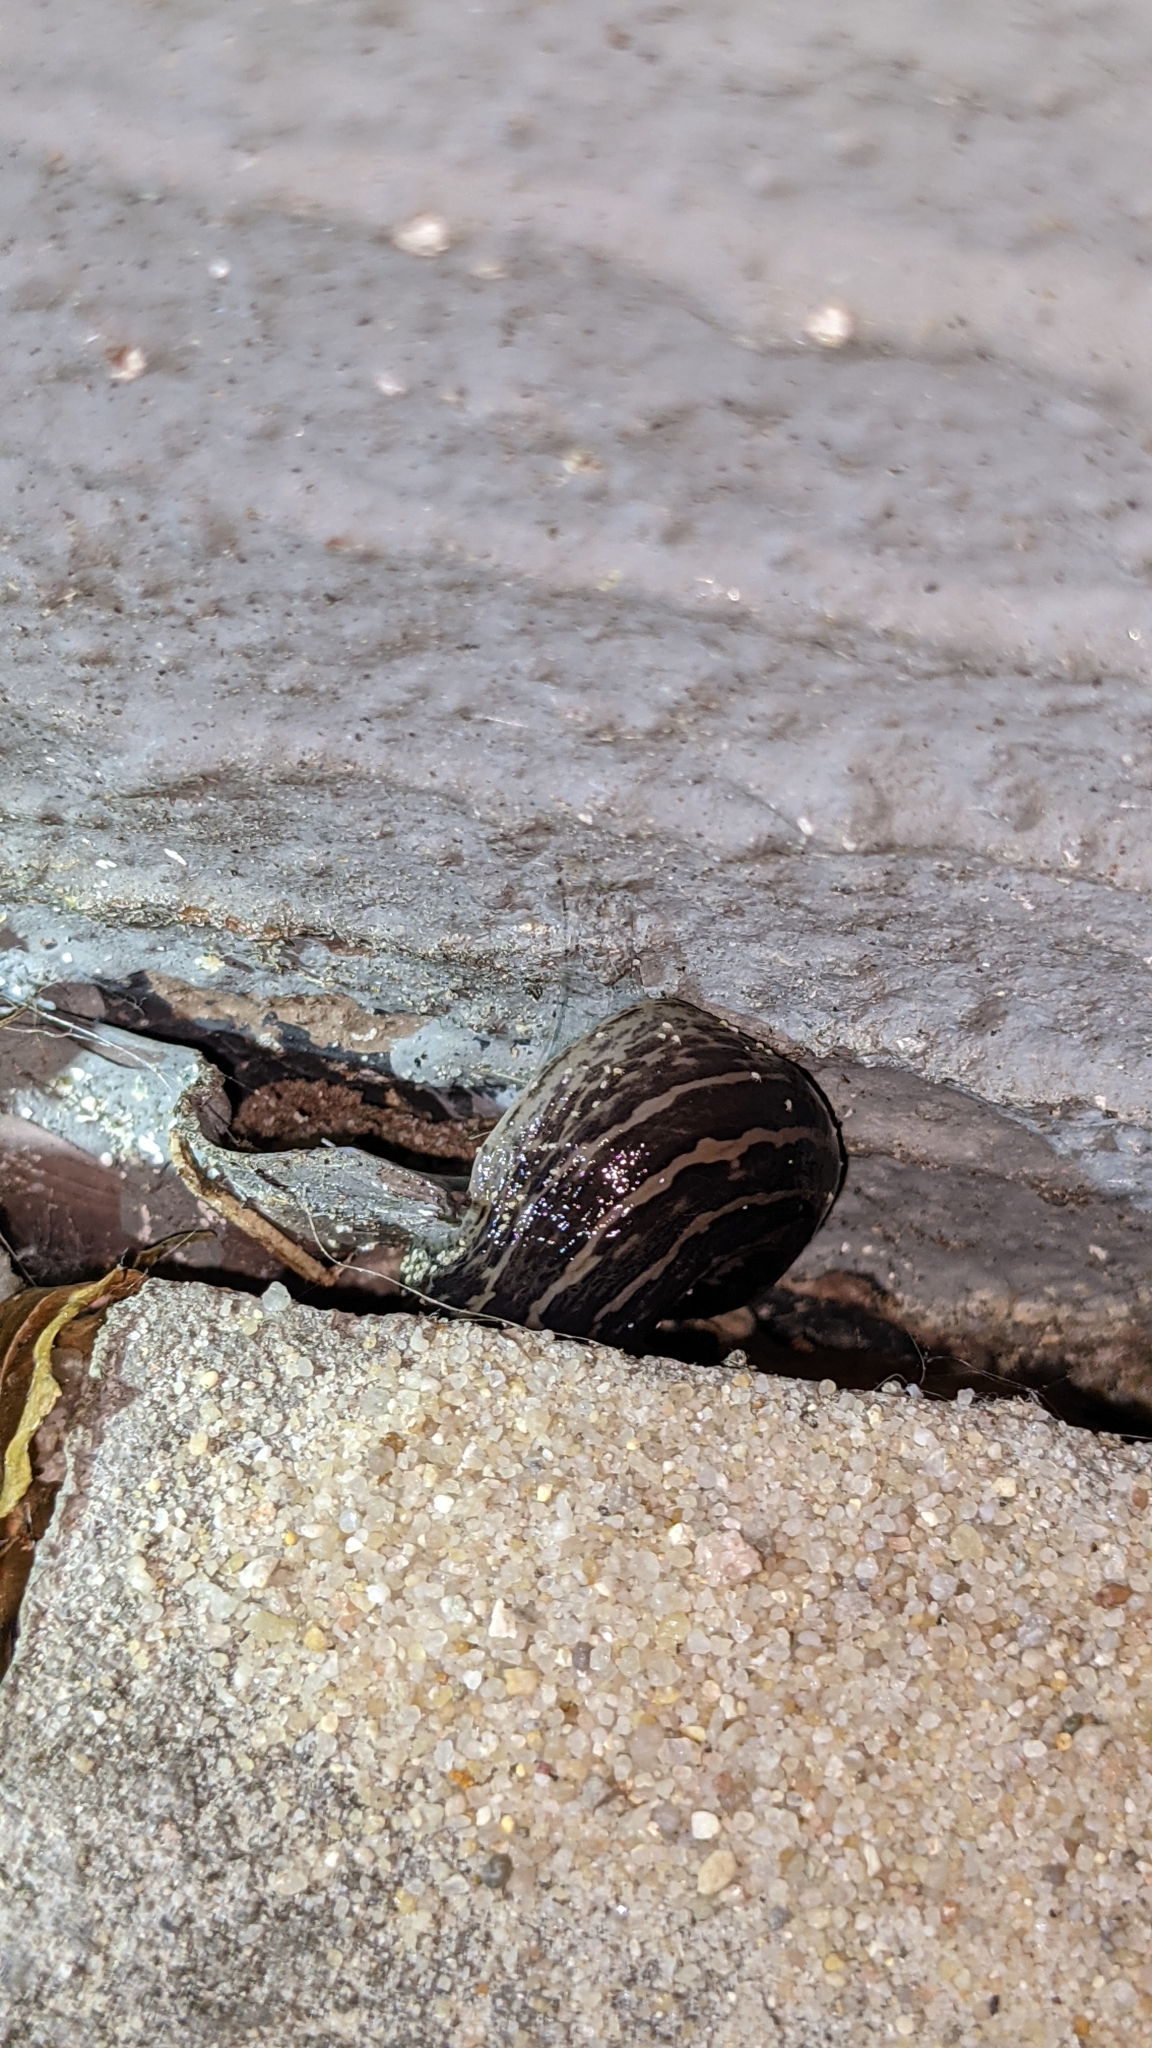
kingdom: Animalia
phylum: Mollusca
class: Gastropoda
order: Stylommatophora
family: Limacidae
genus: Limax
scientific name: Limax maximus
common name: Great grey slug
